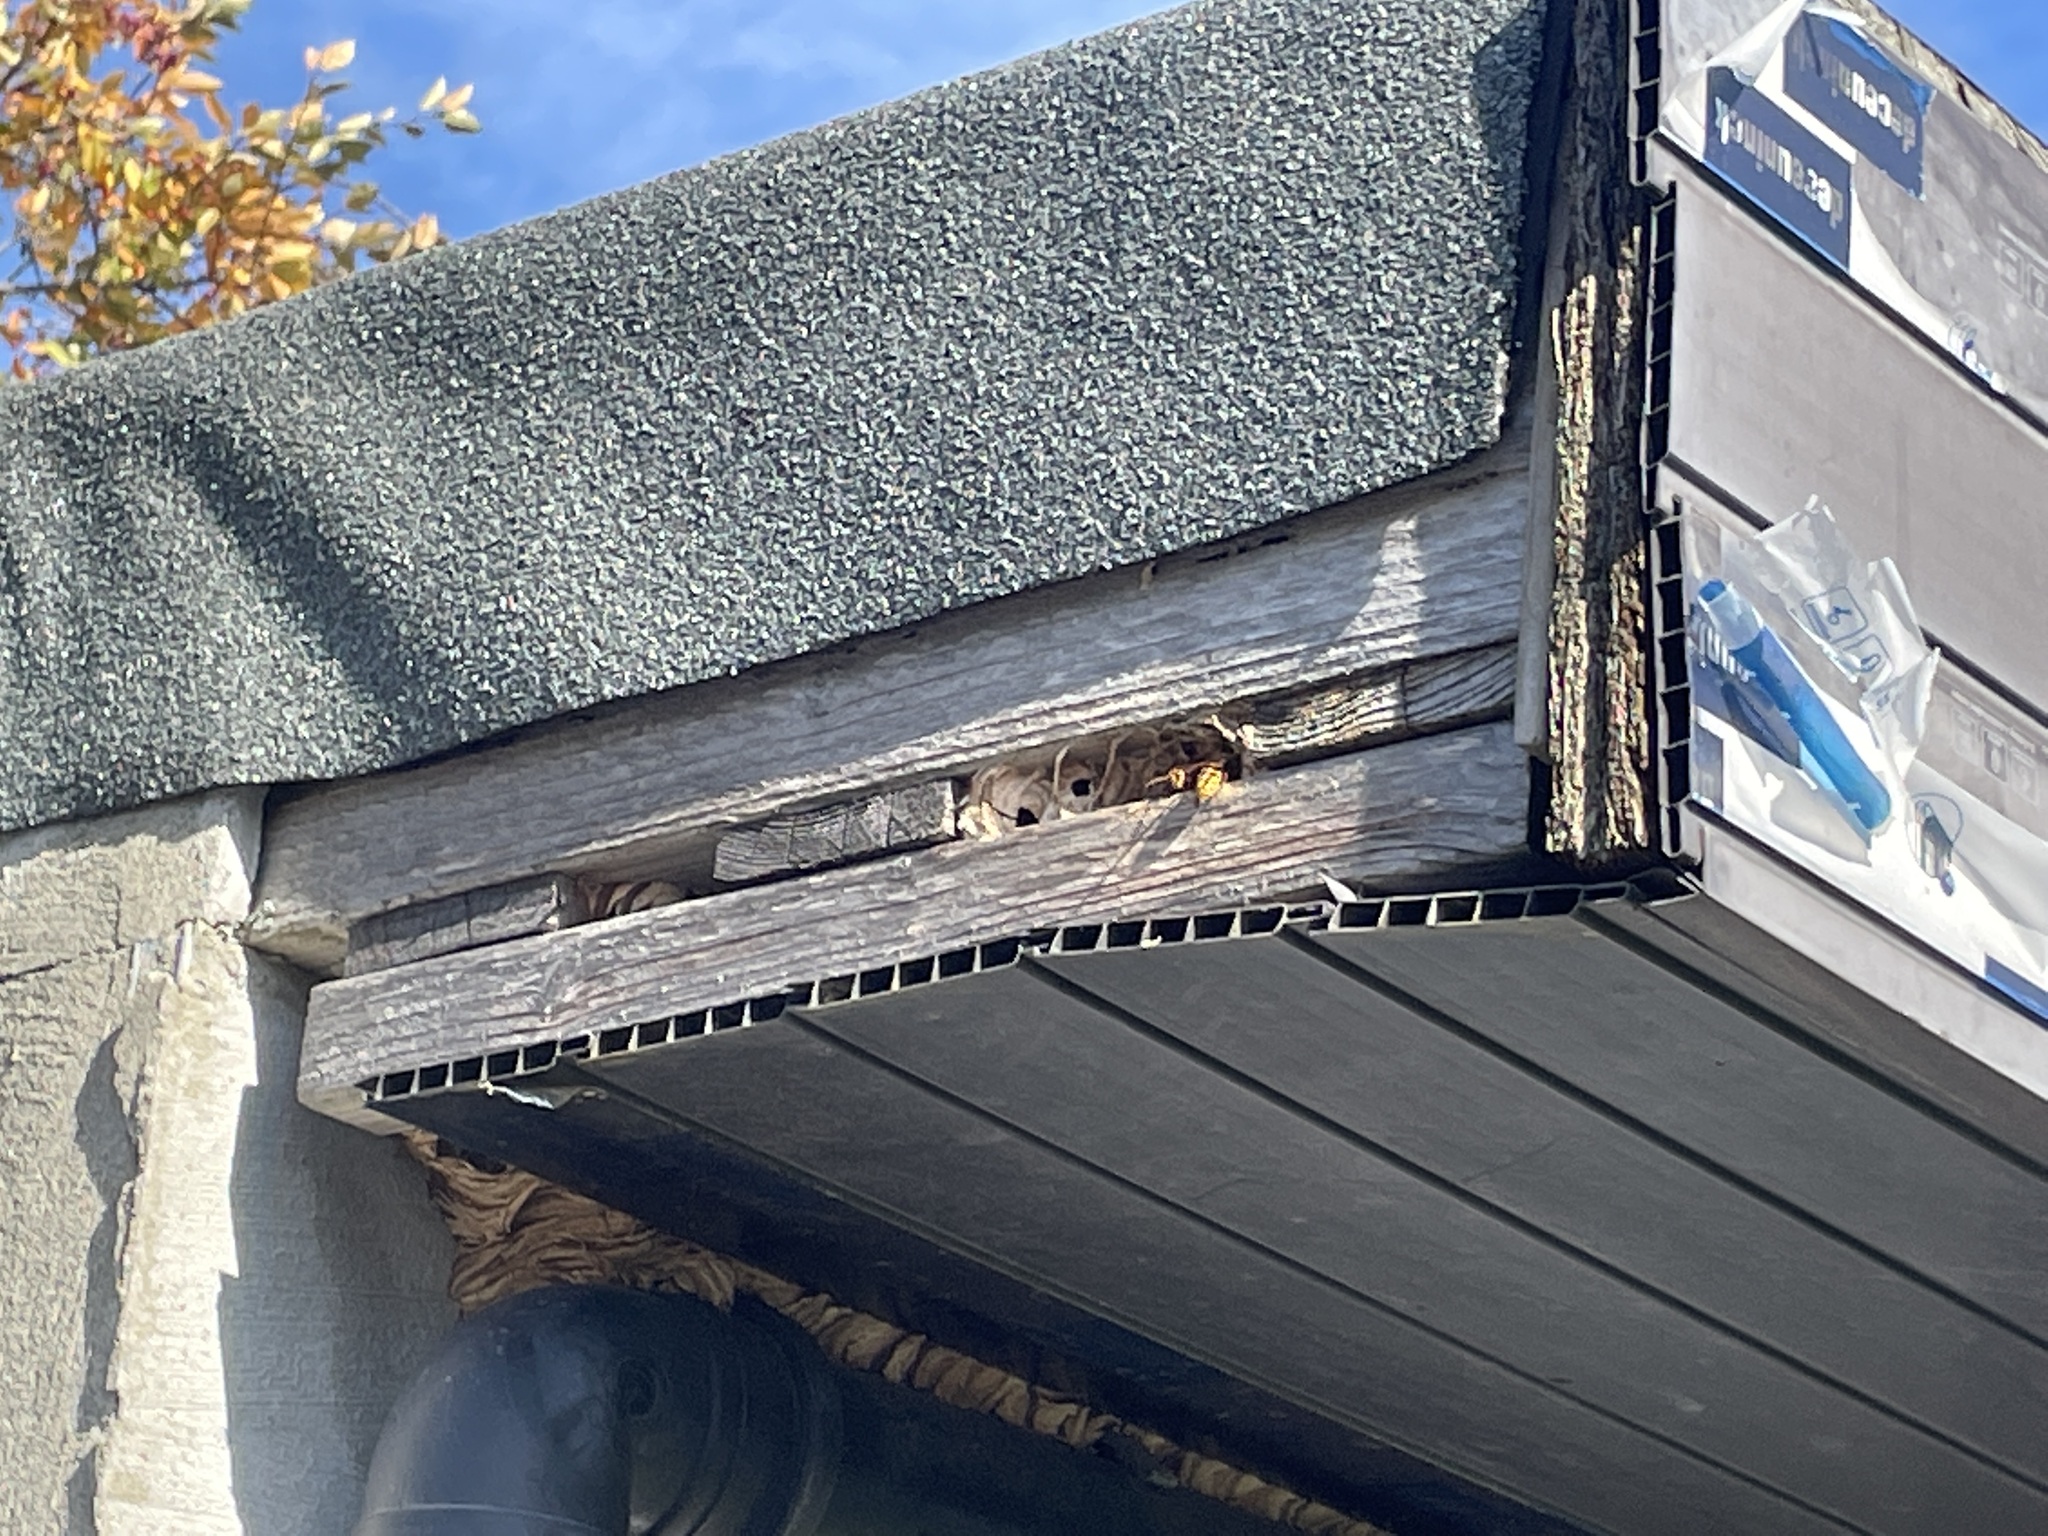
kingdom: Animalia
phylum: Arthropoda
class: Insecta
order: Hymenoptera
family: Vespidae
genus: Vespa
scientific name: Vespa crabro
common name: Hornet
